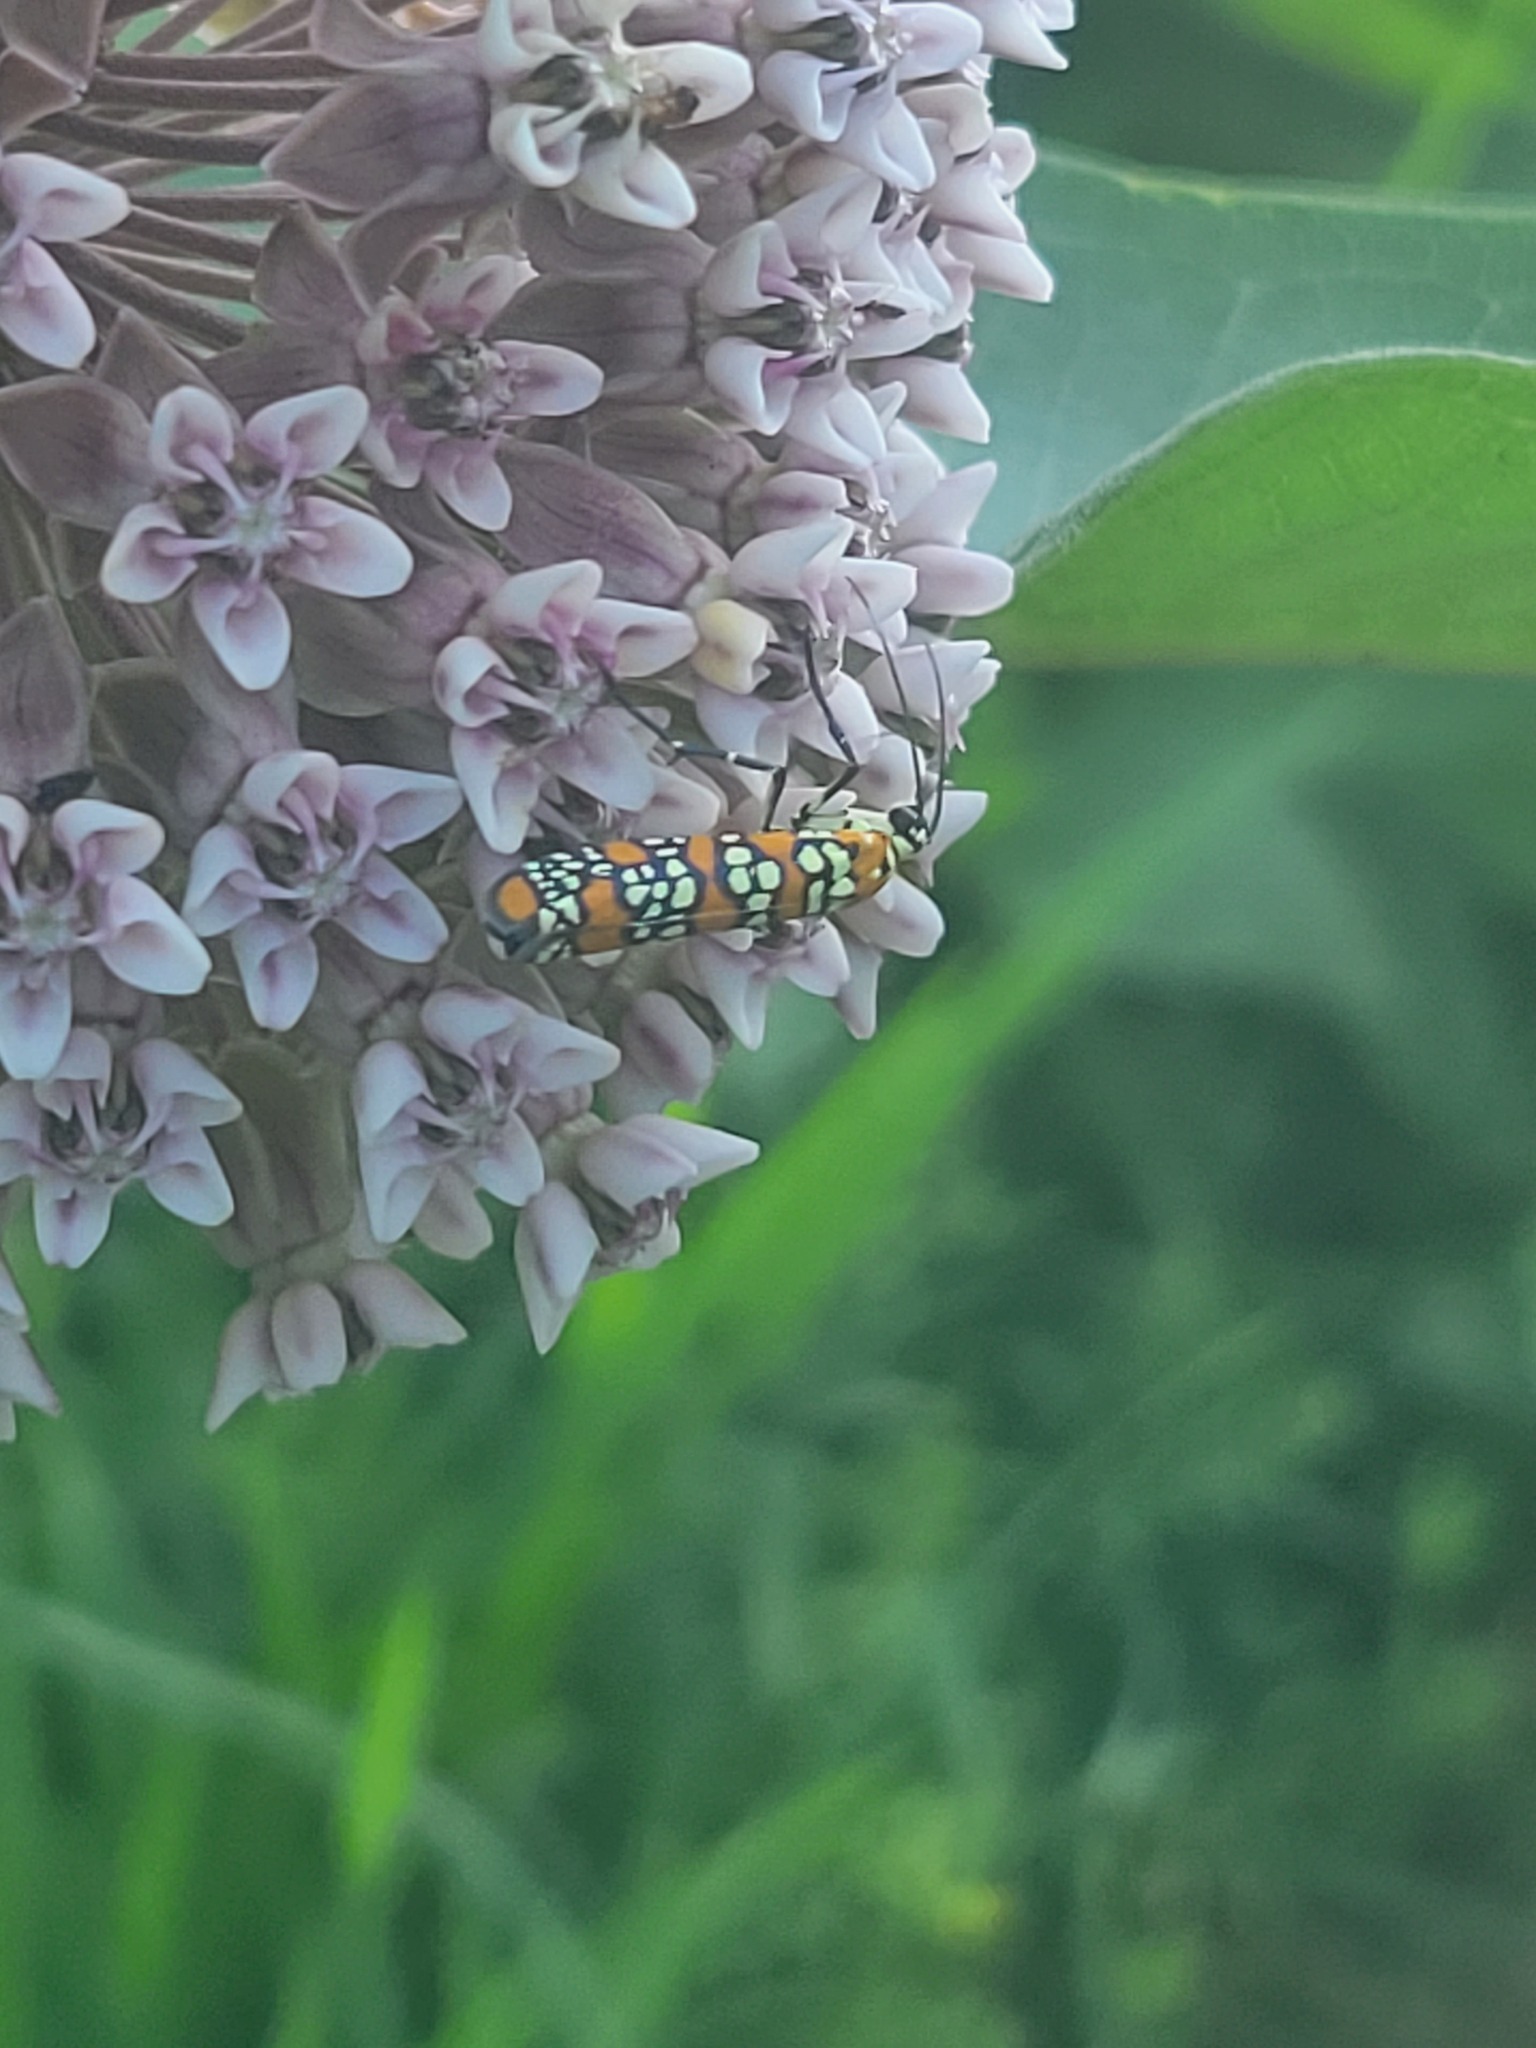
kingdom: Animalia
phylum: Arthropoda
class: Insecta
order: Lepidoptera
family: Attevidae
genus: Atteva
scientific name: Atteva punctella
